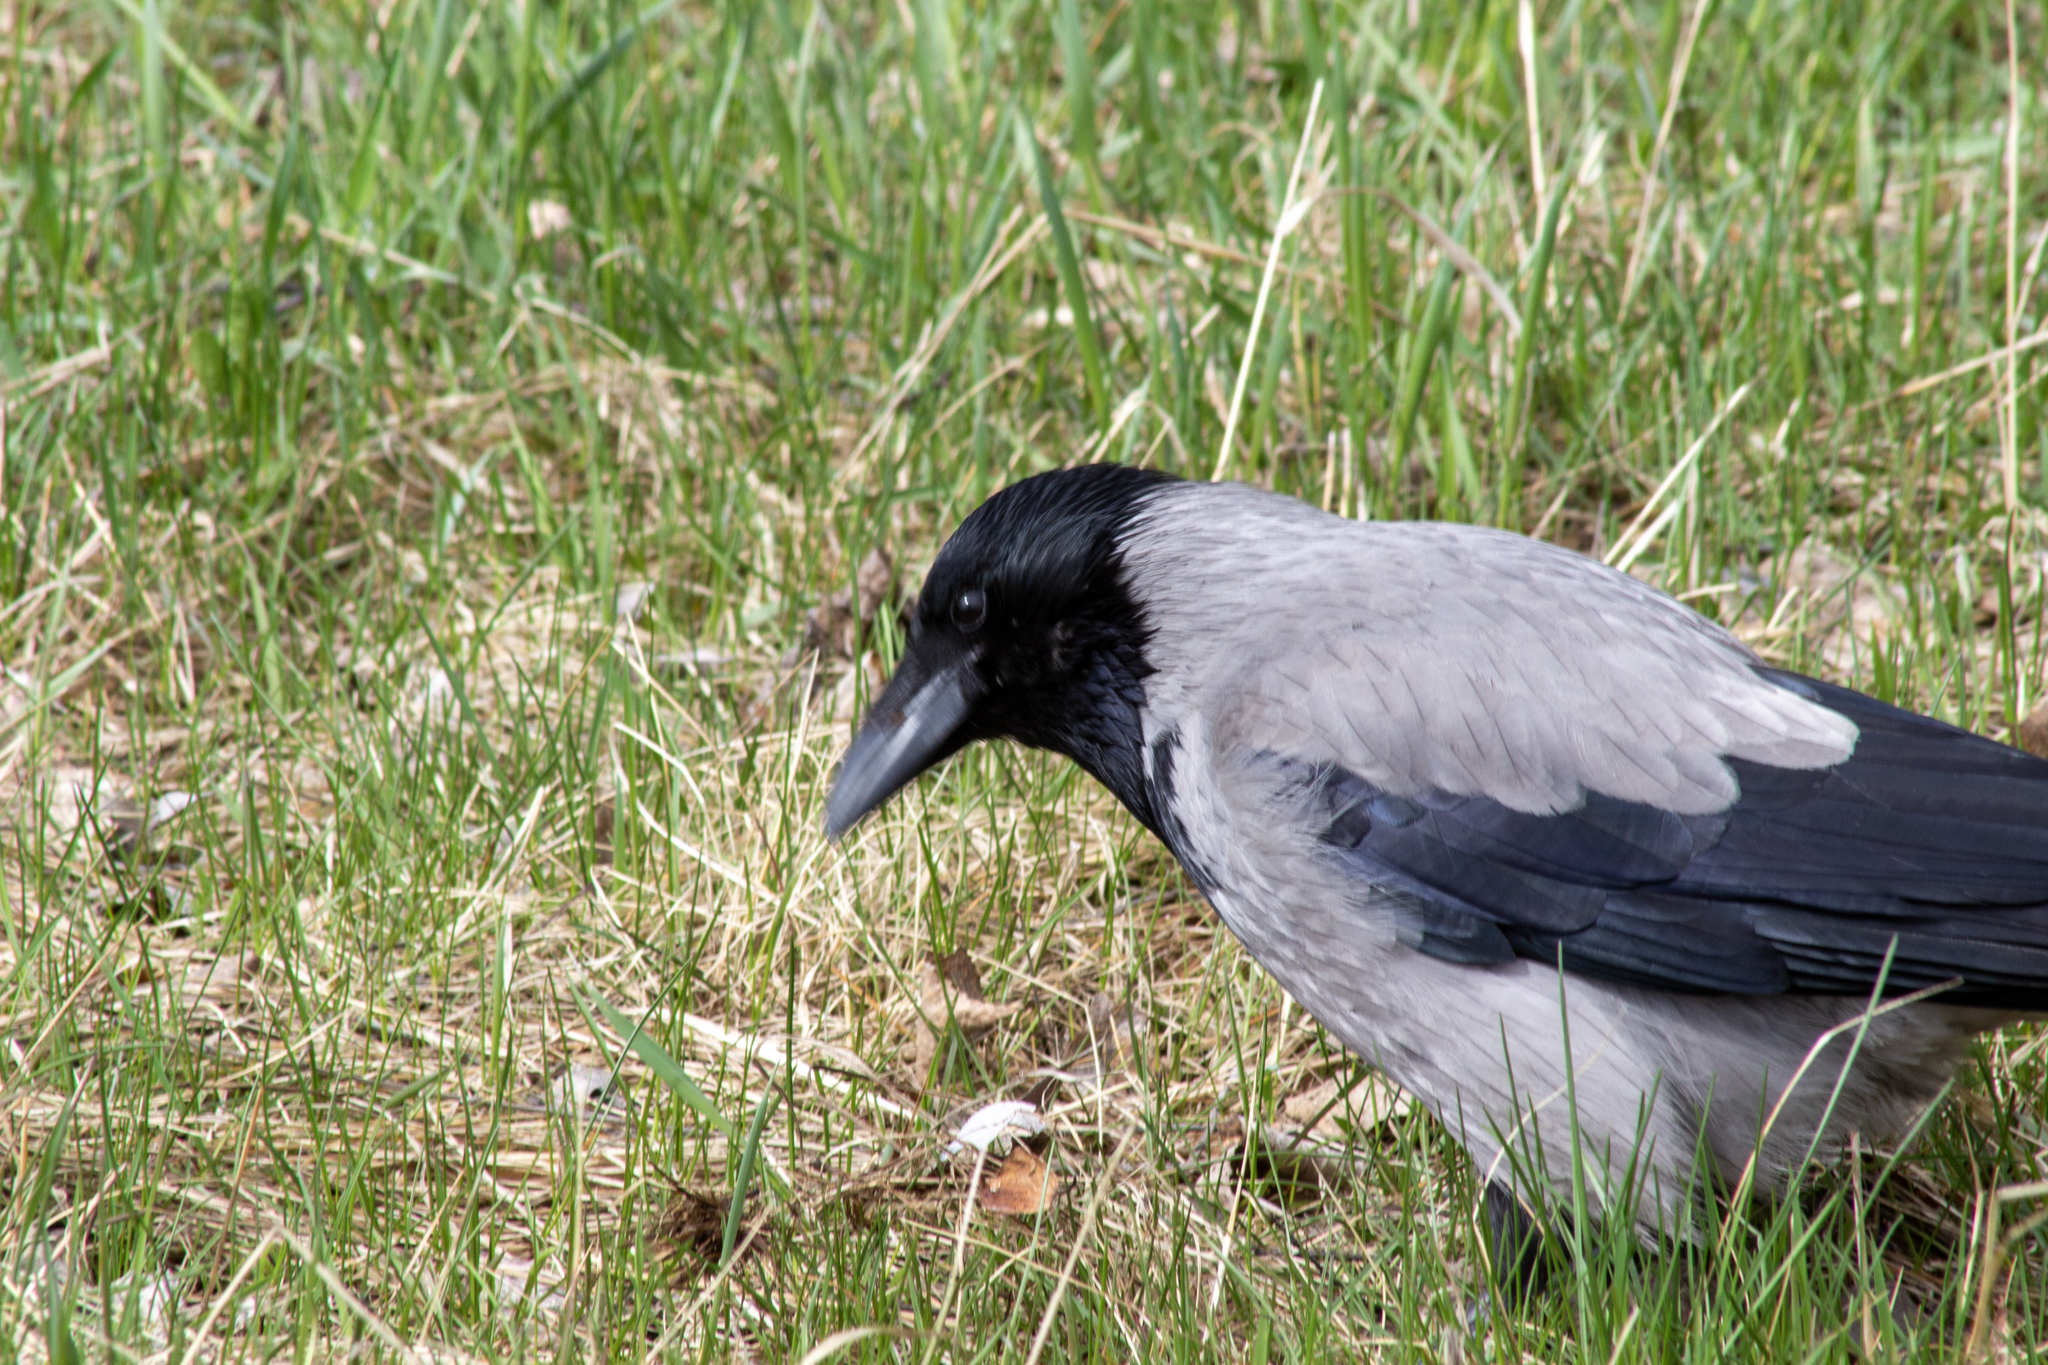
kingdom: Animalia
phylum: Chordata
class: Aves
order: Passeriformes
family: Corvidae
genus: Corvus
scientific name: Corvus cornix
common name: Hooded crow
